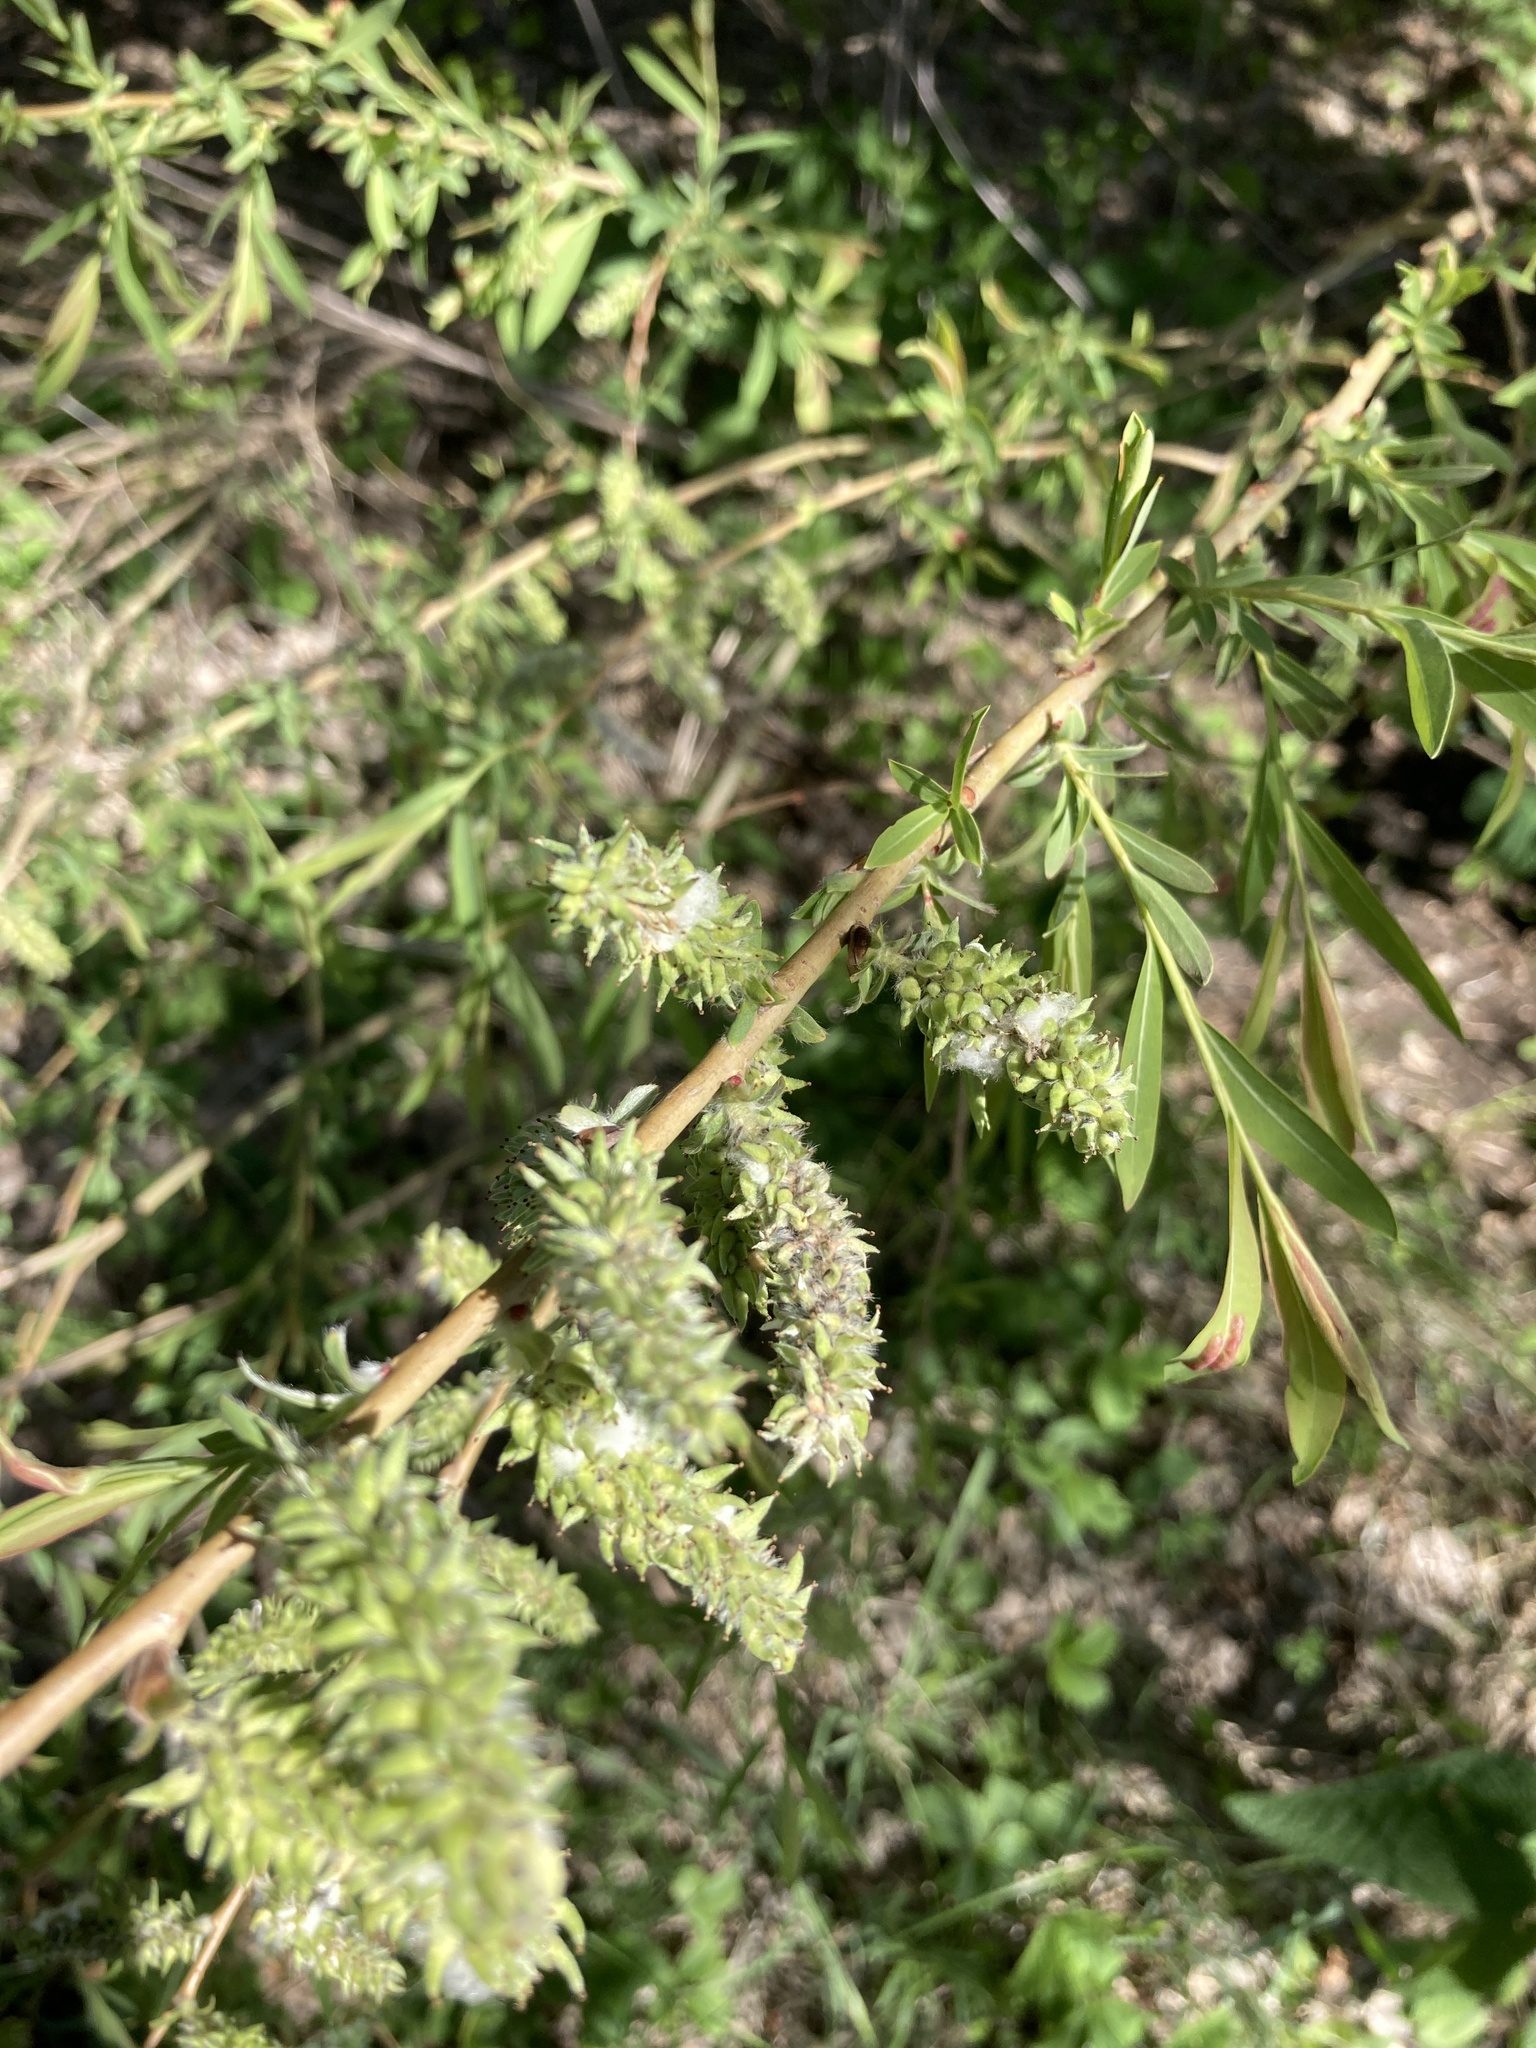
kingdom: Plantae
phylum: Tracheophyta
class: Magnoliopsida
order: Malpighiales
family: Salicaceae
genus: Salix
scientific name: Salix vinogradovii
